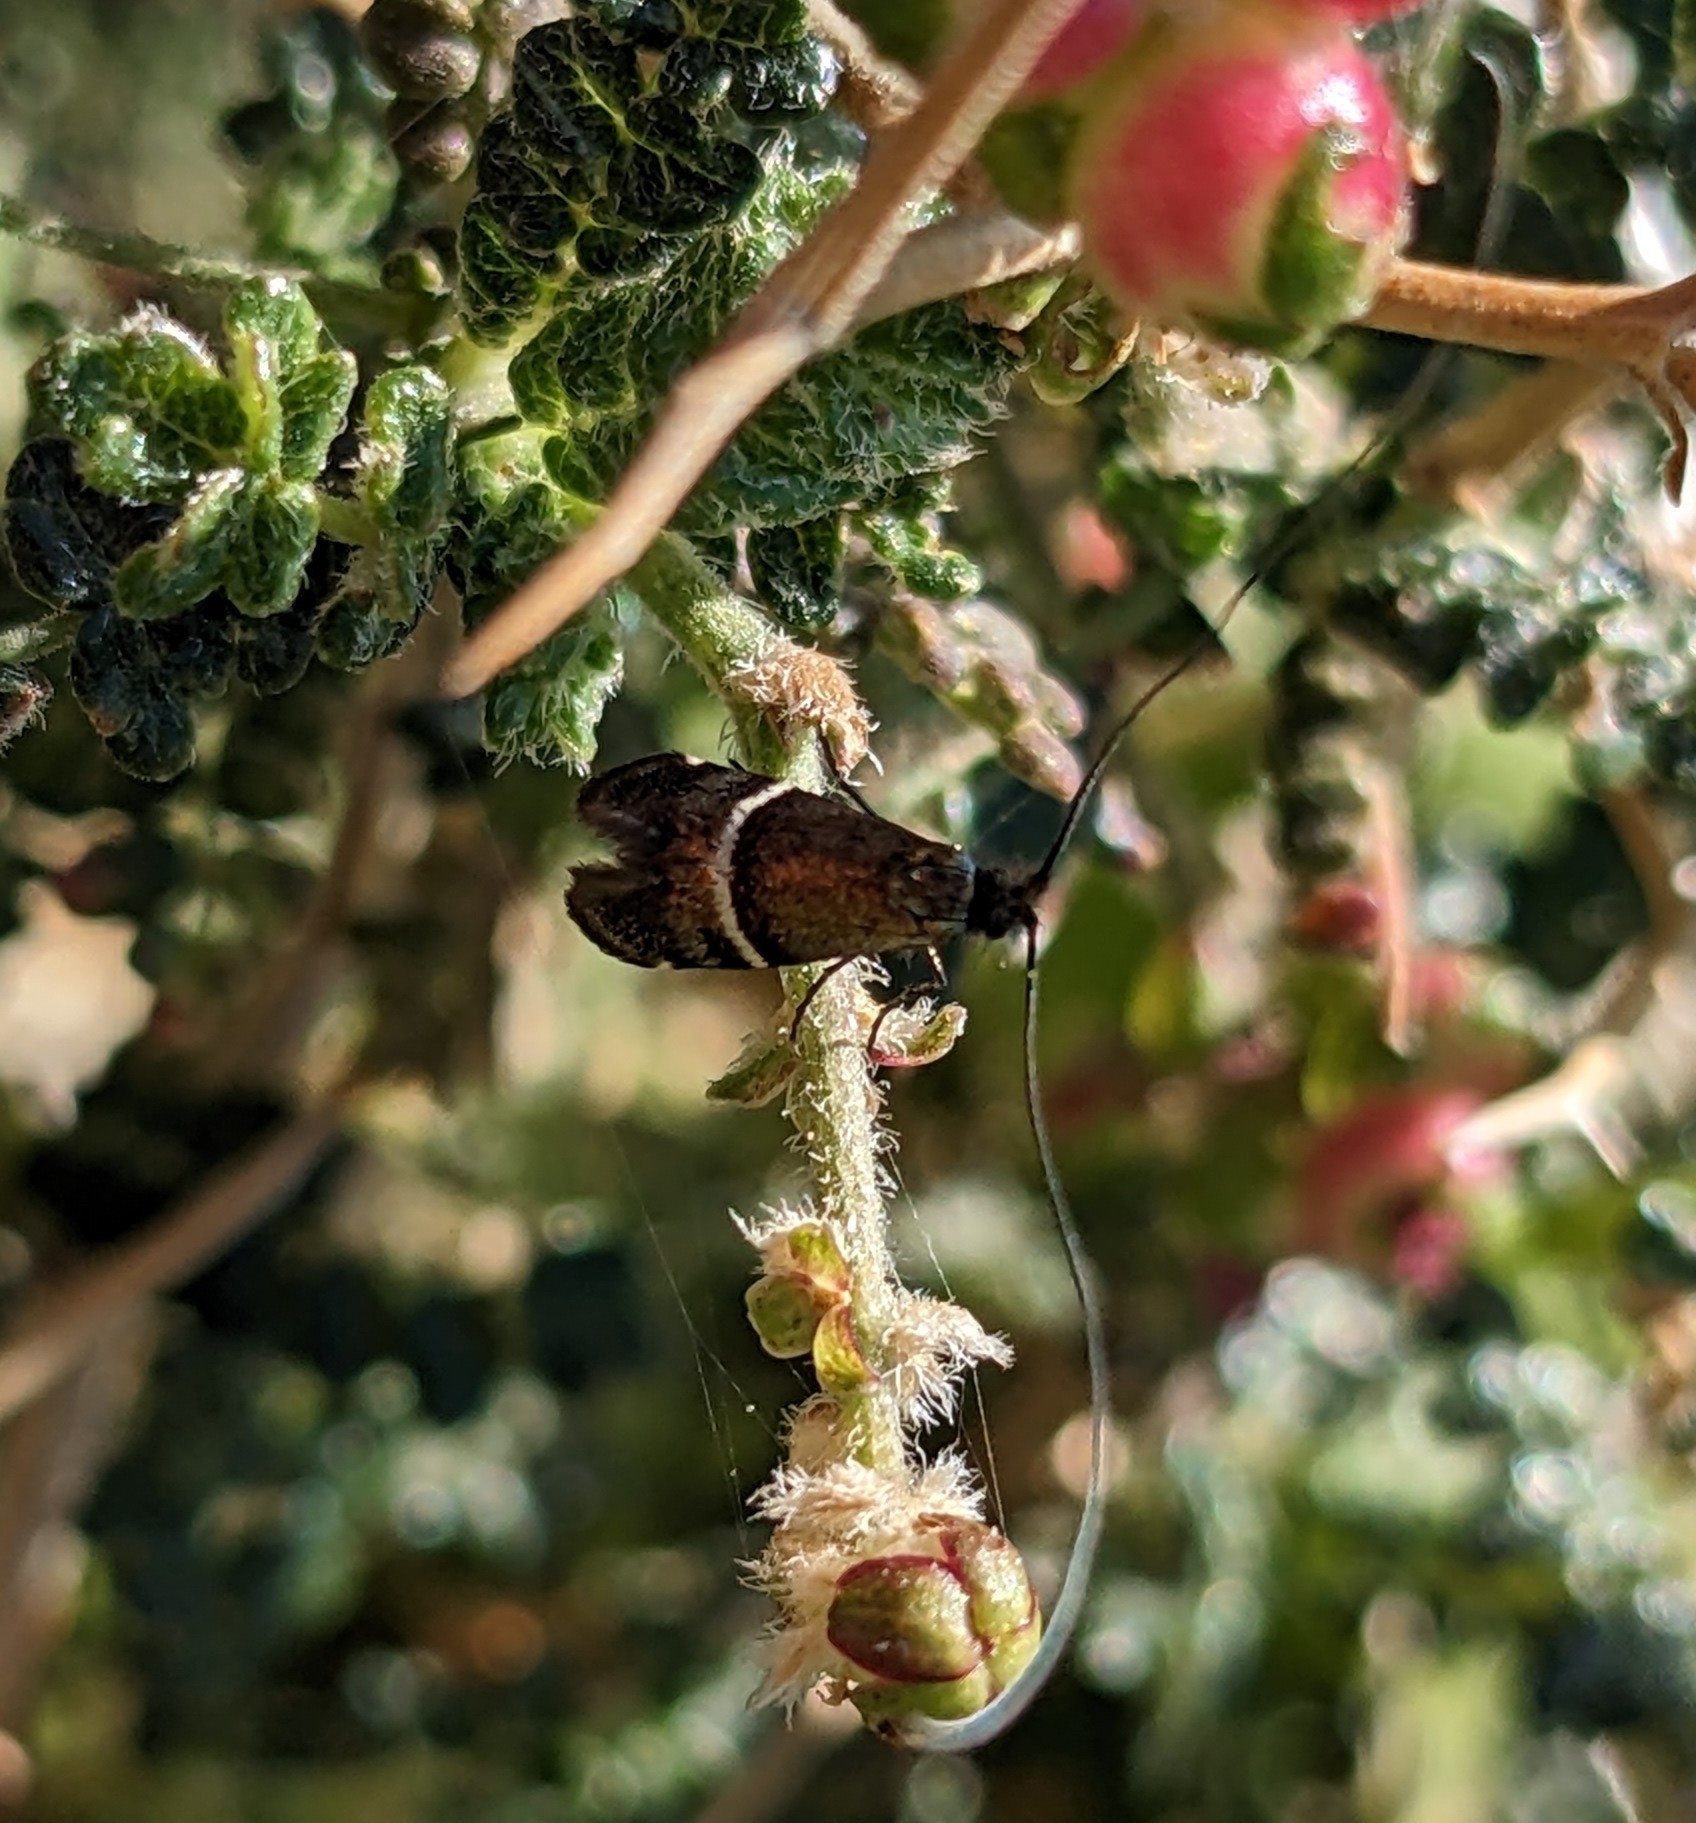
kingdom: Animalia
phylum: Arthropoda
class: Insecta
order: Lepidoptera
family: Adelidae
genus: Adela
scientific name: Adela paludicolella
